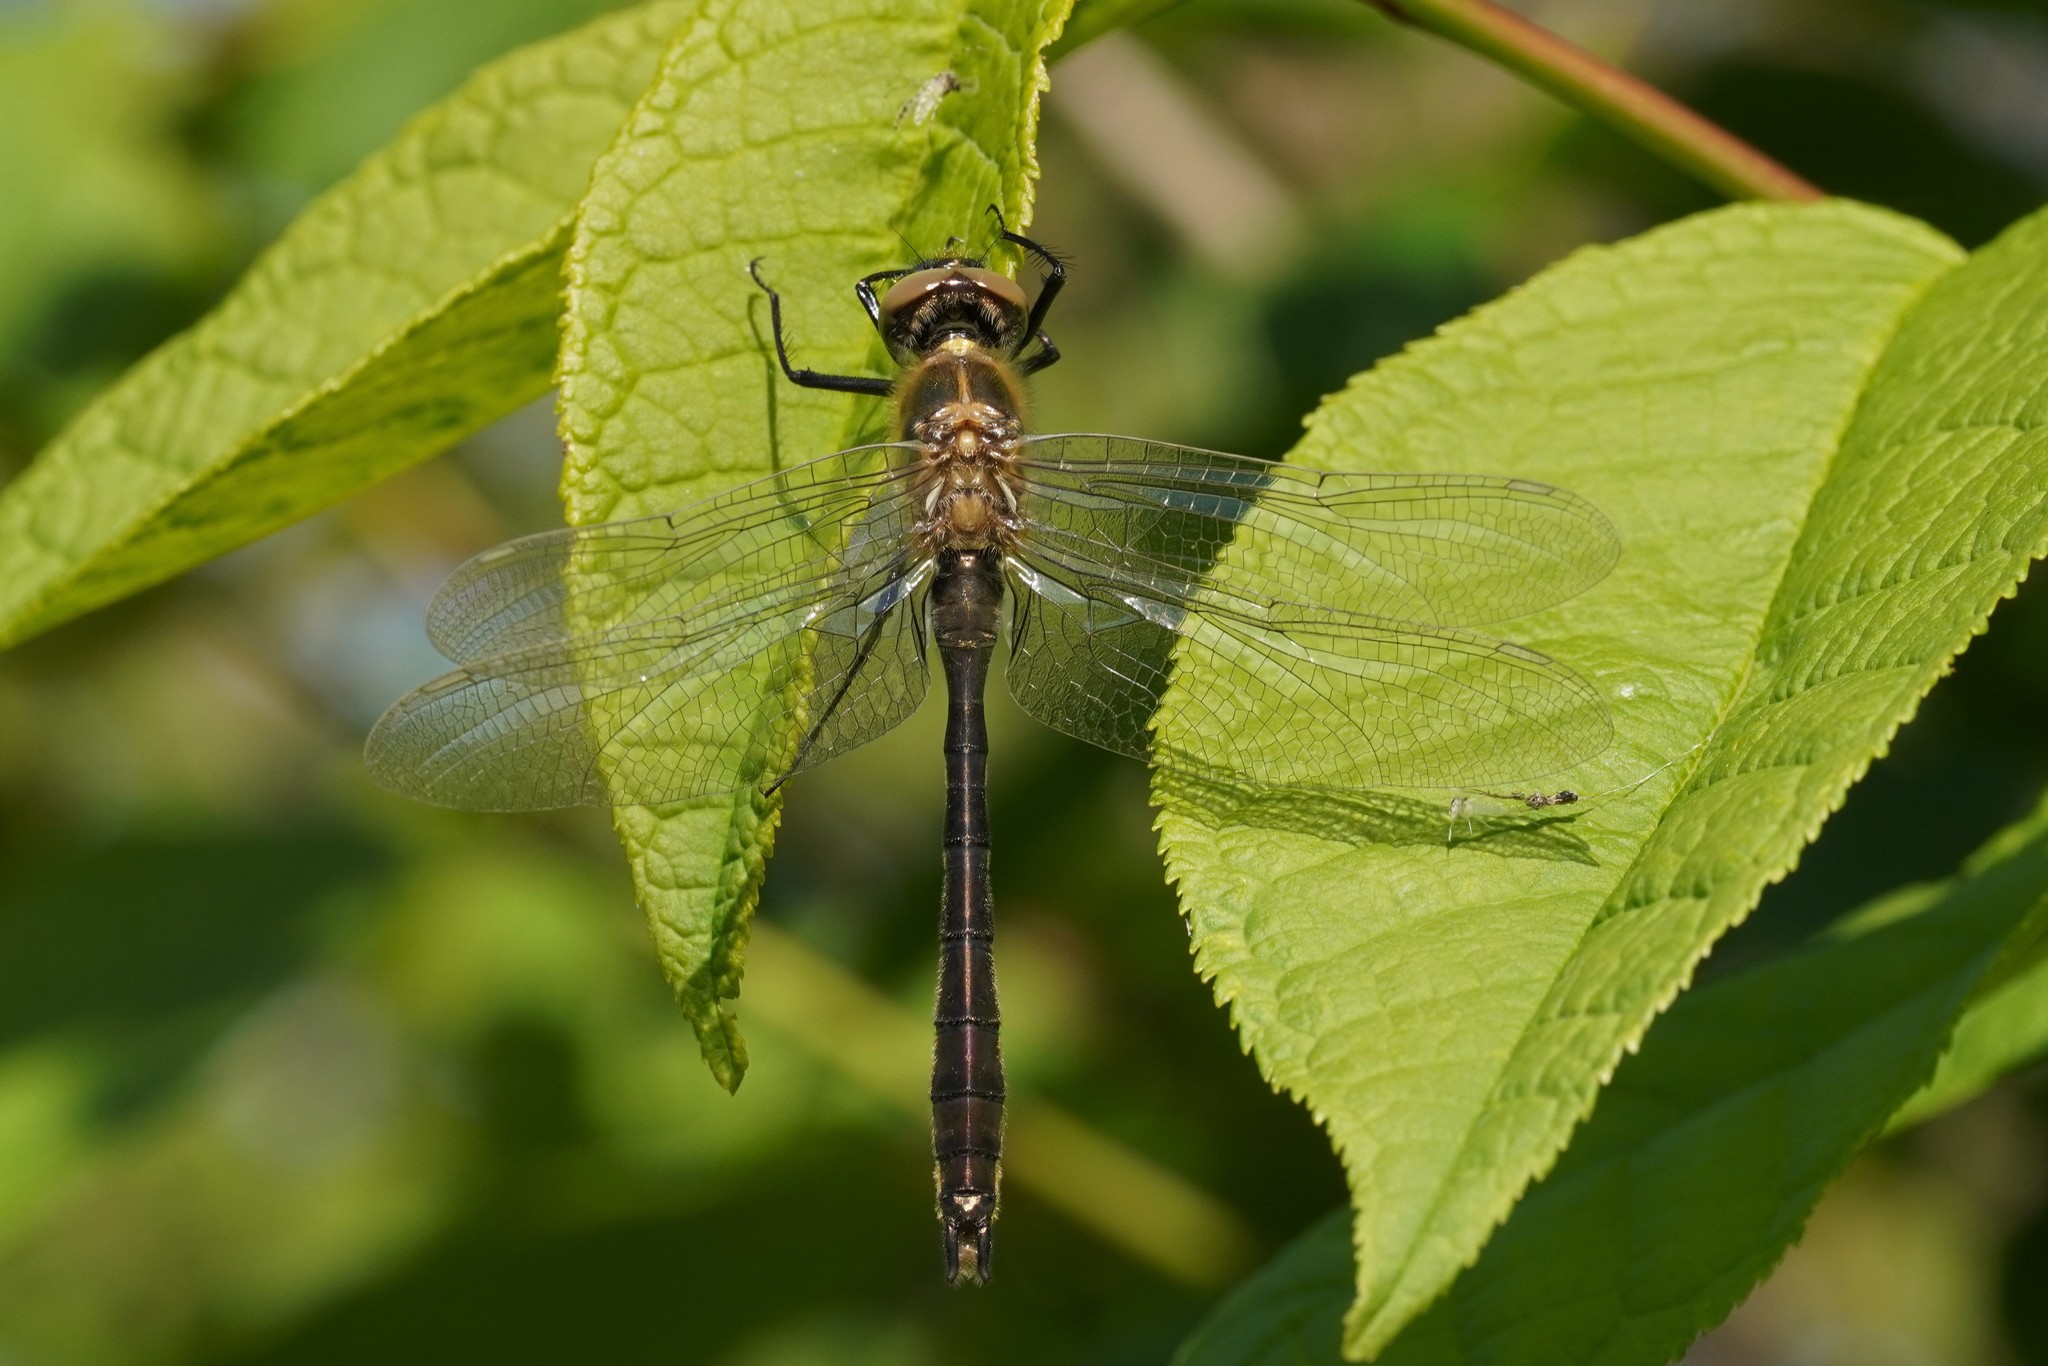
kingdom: Animalia
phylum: Arthropoda
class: Insecta
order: Odonata
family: Corduliidae
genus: Cordulia
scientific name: Cordulia aenea
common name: Downy emerald
